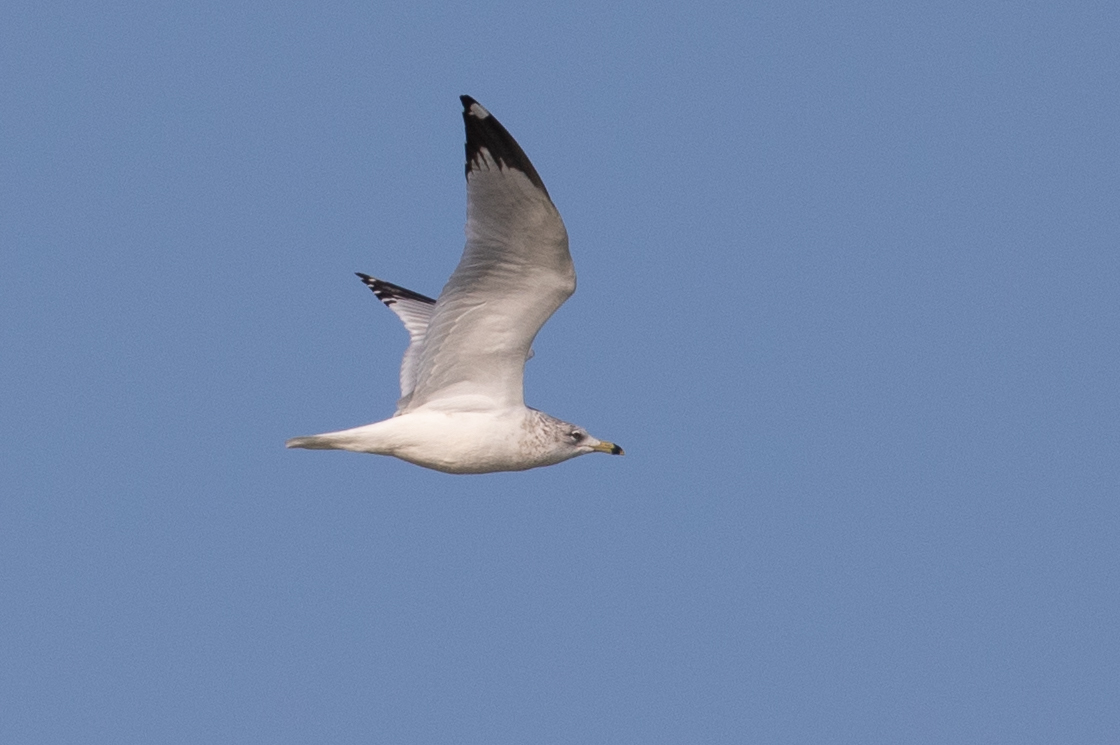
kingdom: Animalia
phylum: Chordata
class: Aves
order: Charadriiformes
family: Laridae
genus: Larus
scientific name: Larus delawarensis
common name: Ring-billed gull
